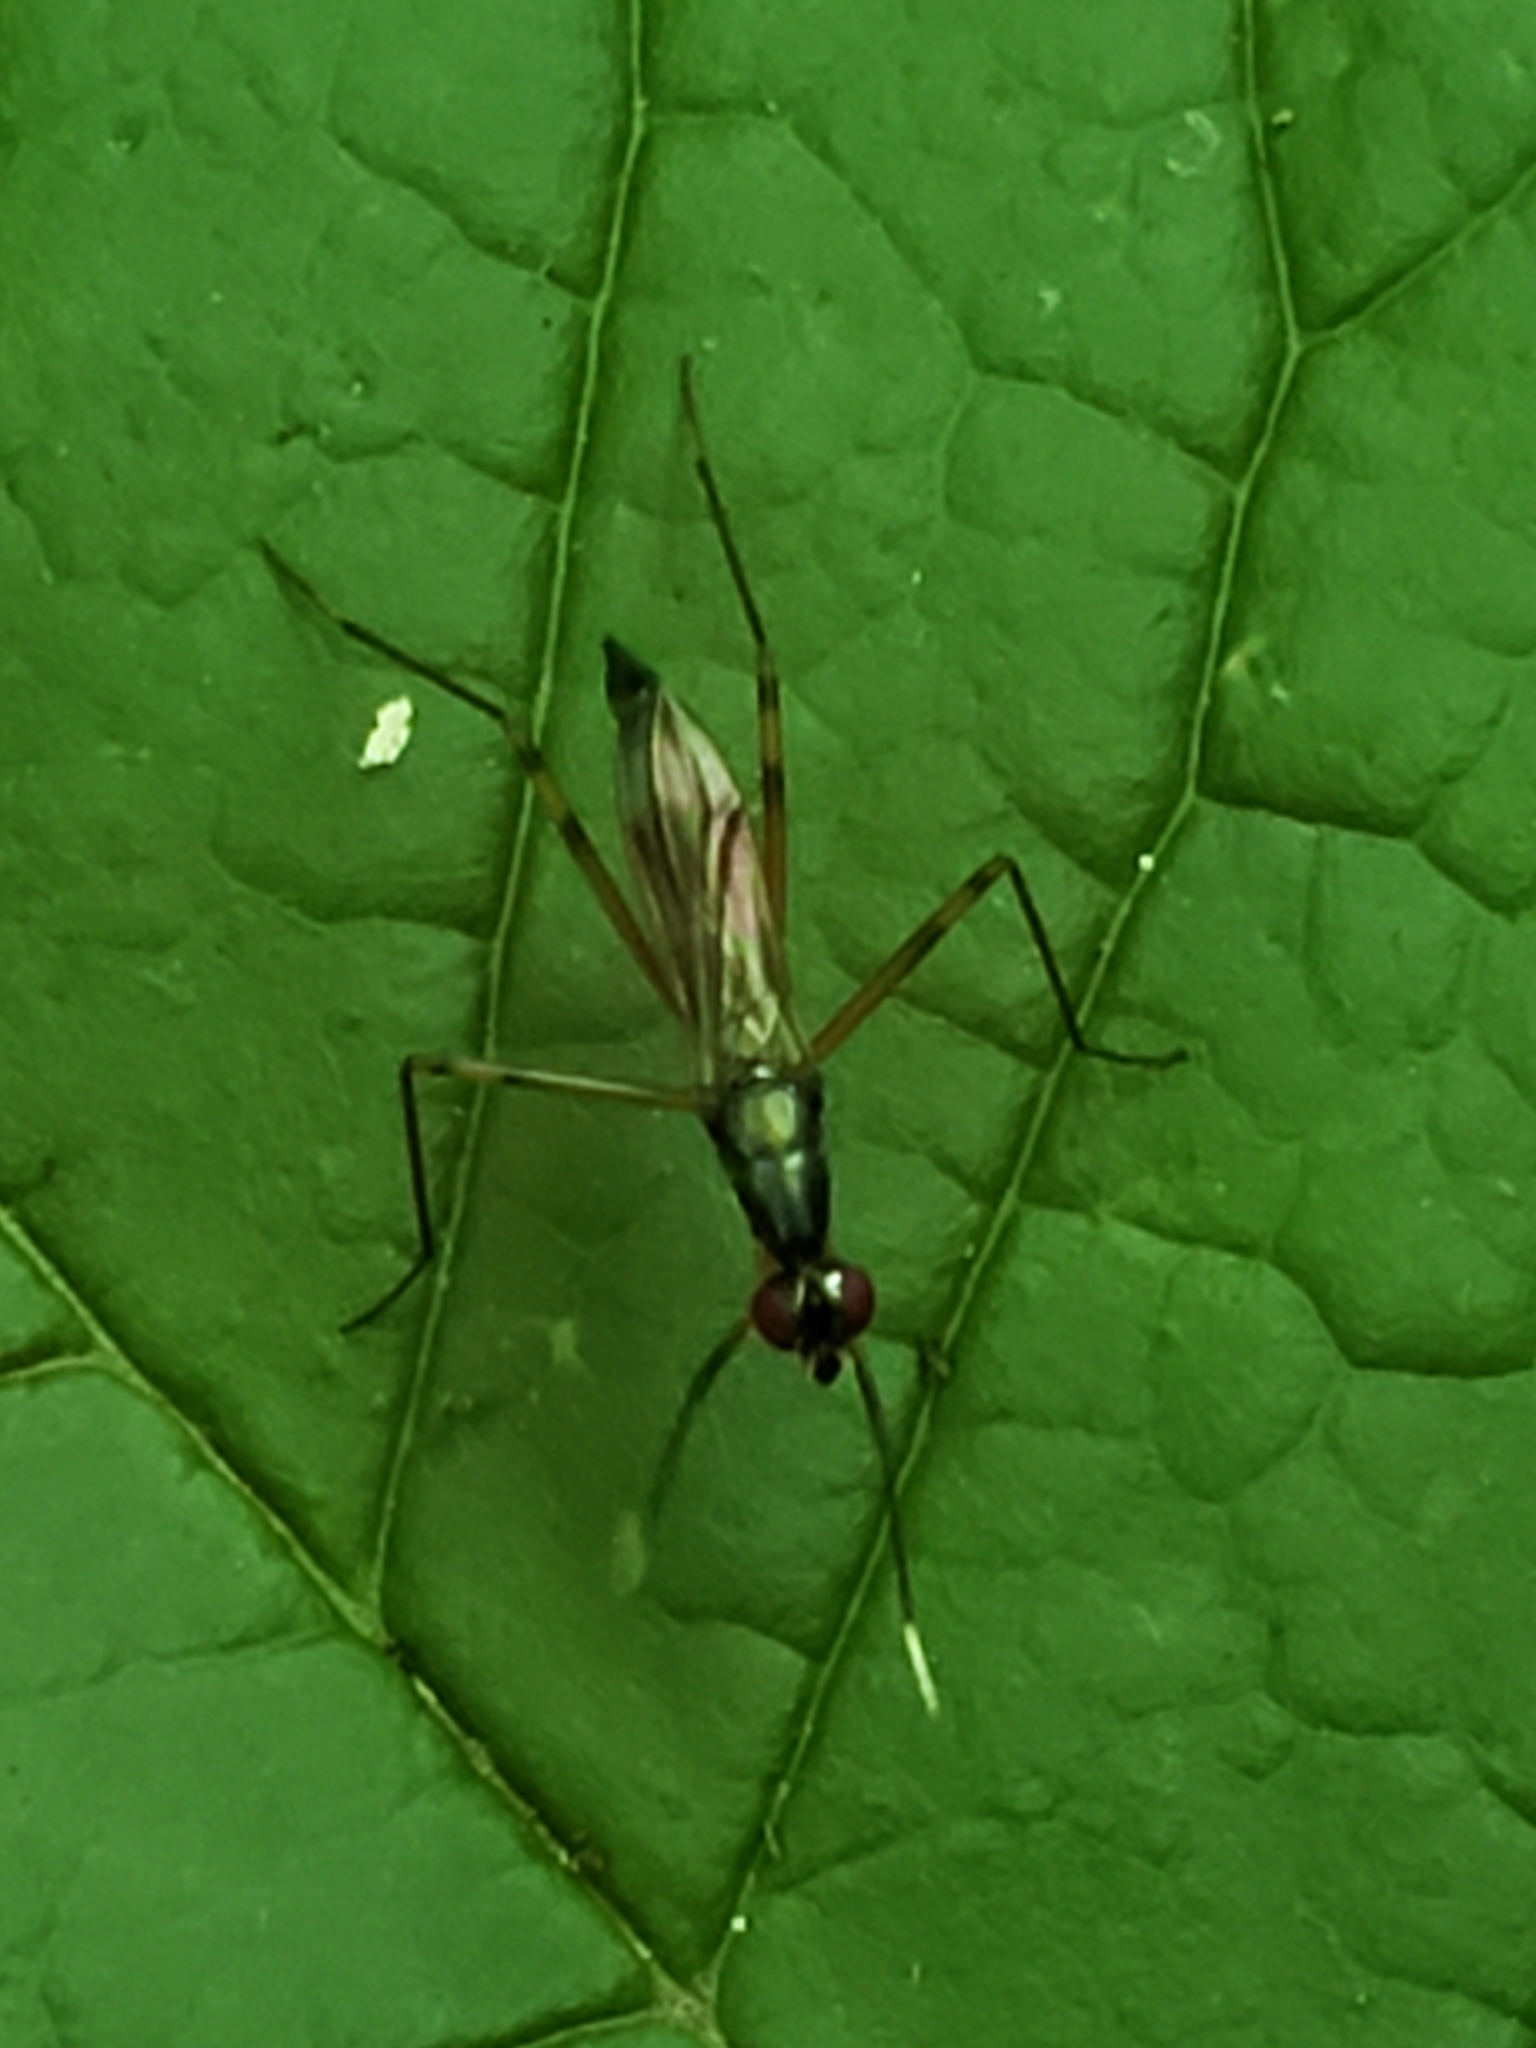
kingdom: Animalia
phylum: Arthropoda
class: Insecta
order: Diptera
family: Micropezidae
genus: Rainieria
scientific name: Rainieria antennaepes
